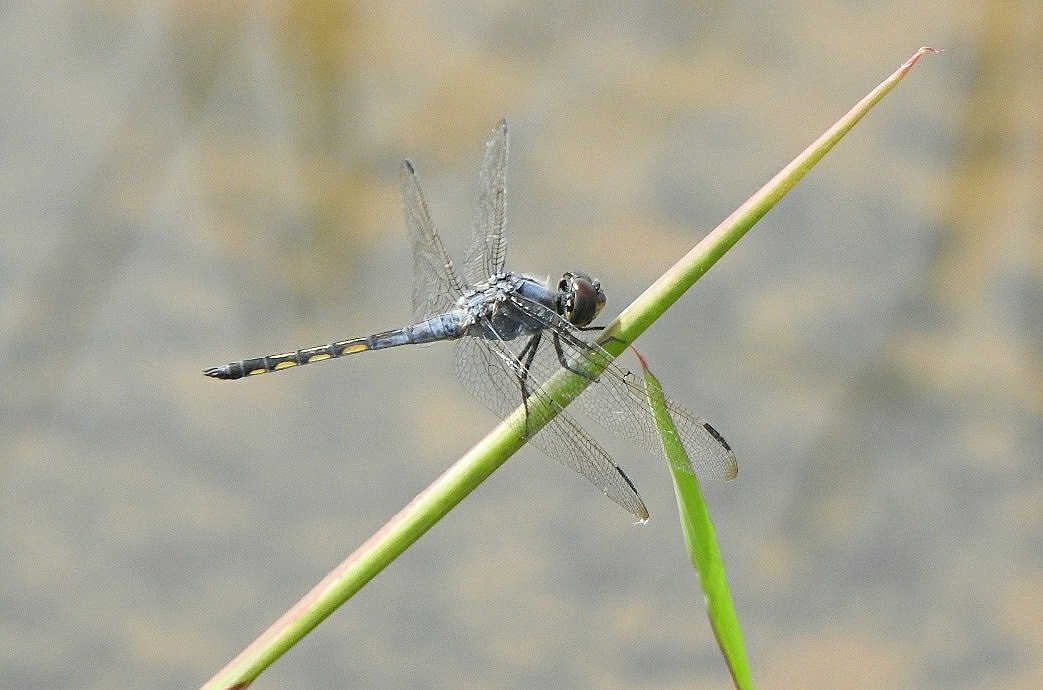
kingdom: Animalia
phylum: Arthropoda
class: Insecta
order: Odonata
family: Libellulidae
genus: Potamarcha
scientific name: Potamarcha congener
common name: Blue chaser
